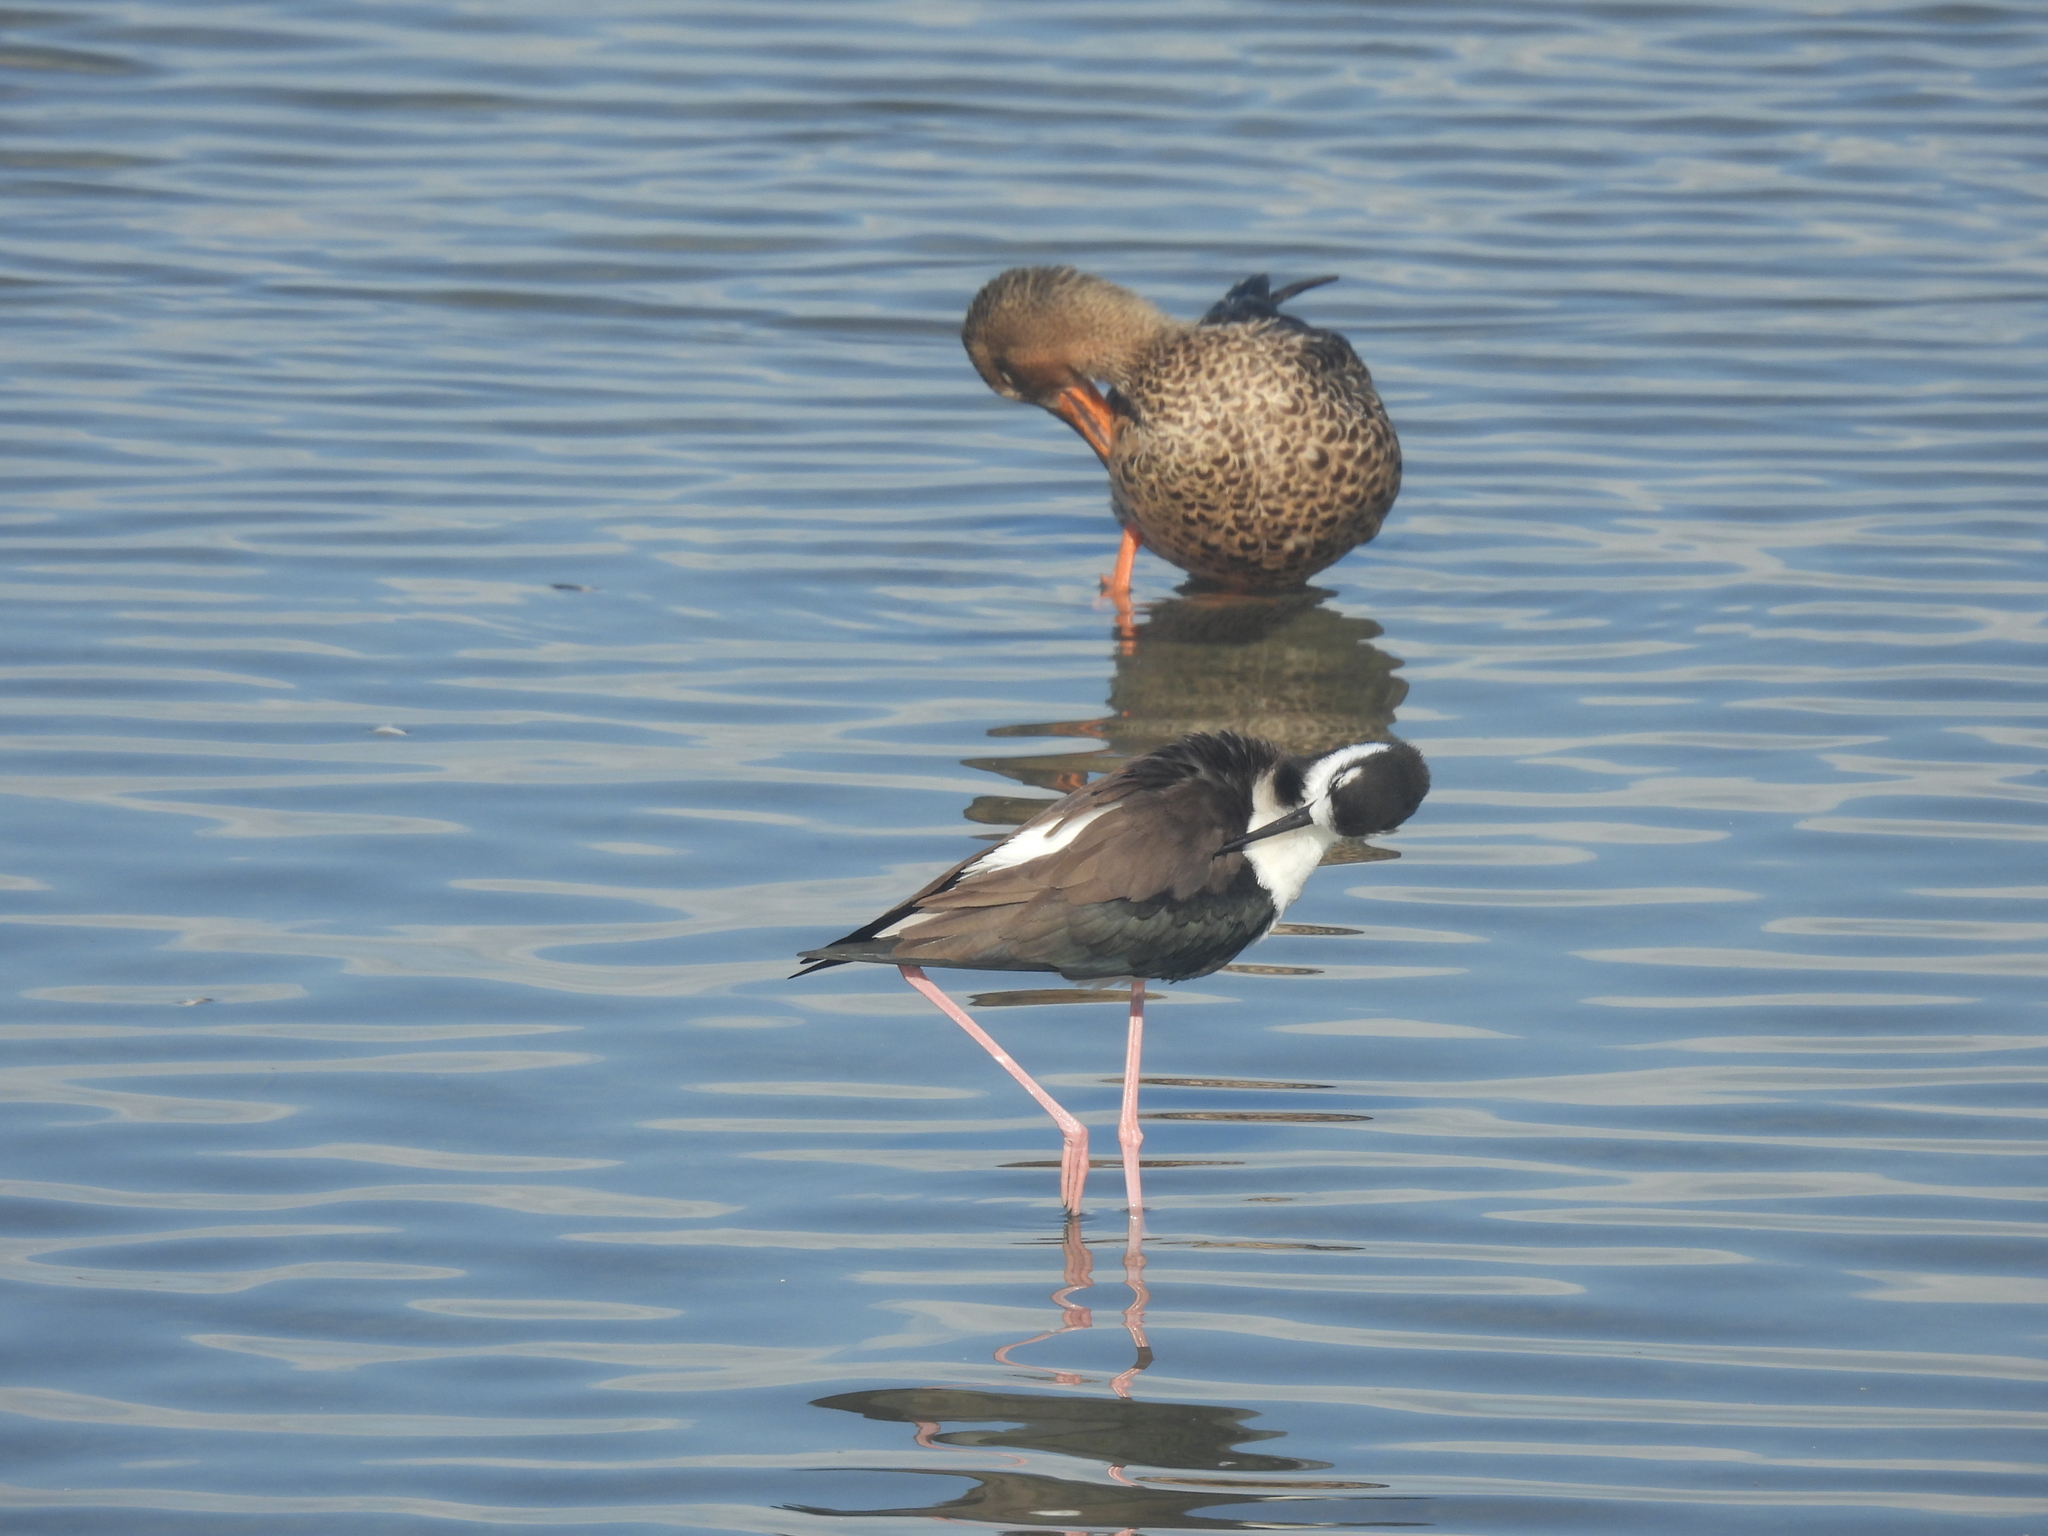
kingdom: Animalia
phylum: Chordata
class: Aves
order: Charadriiformes
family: Recurvirostridae
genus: Himantopus
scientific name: Himantopus mexicanus
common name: Black-necked stilt
